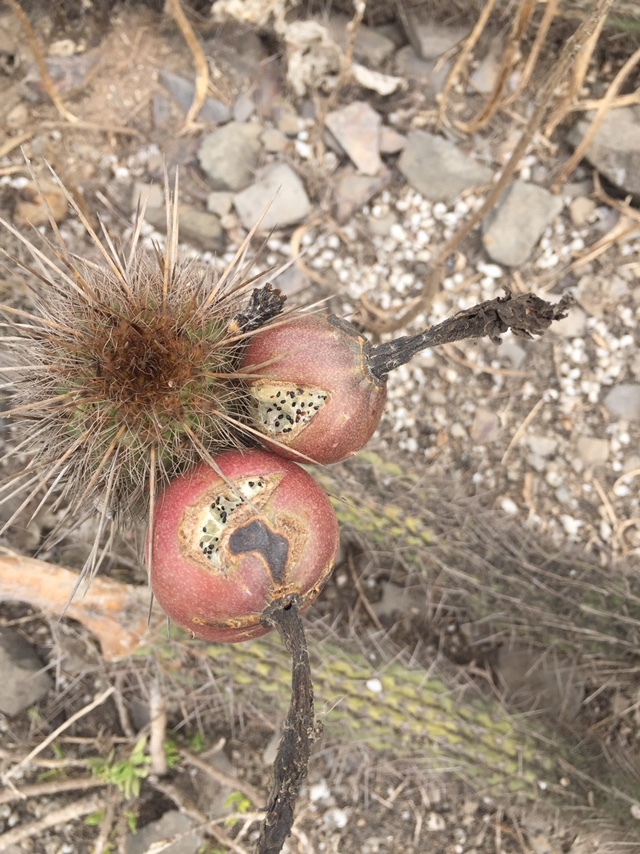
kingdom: Plantae
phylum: Tracheophyta
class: Magnoliopsida
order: Caryophyllales
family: Cactaceae
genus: Haageocereus
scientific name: Haageocereus acranthus
